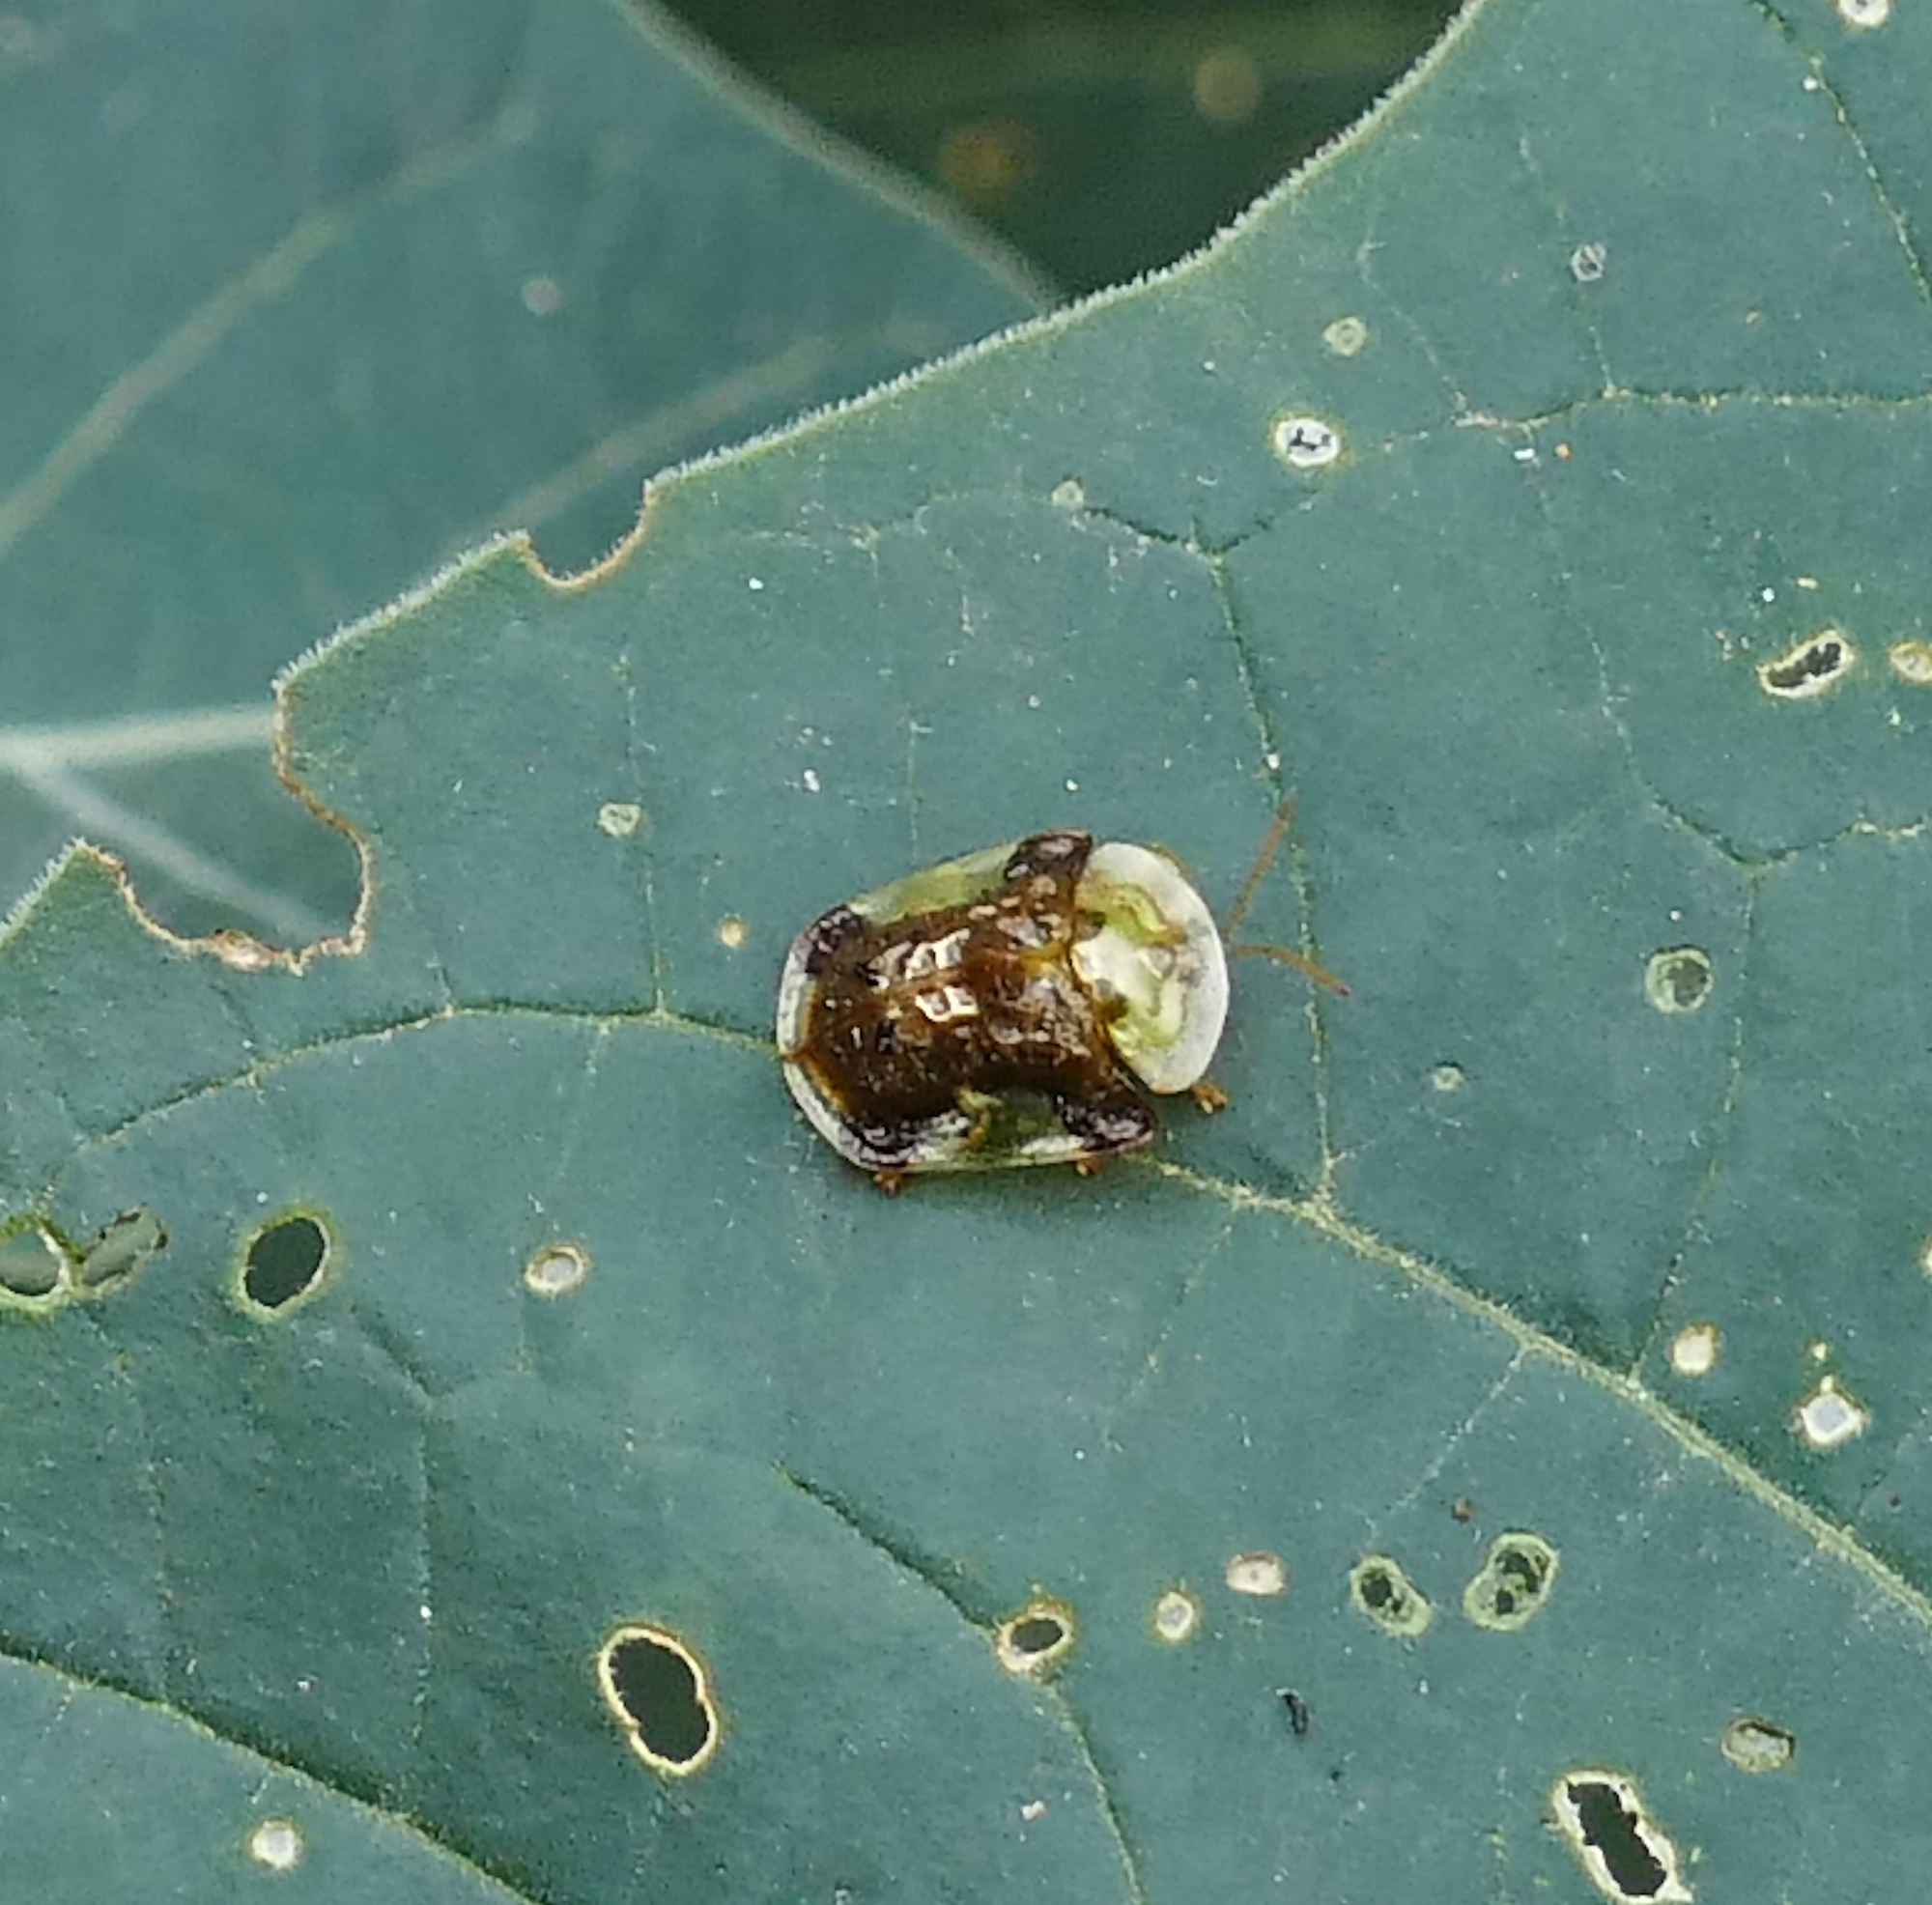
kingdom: Animalia
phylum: Arthropoda
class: Insecta
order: Coleoptera
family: Chrysomelidae
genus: Helocassis
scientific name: Helocassis testudinaria
